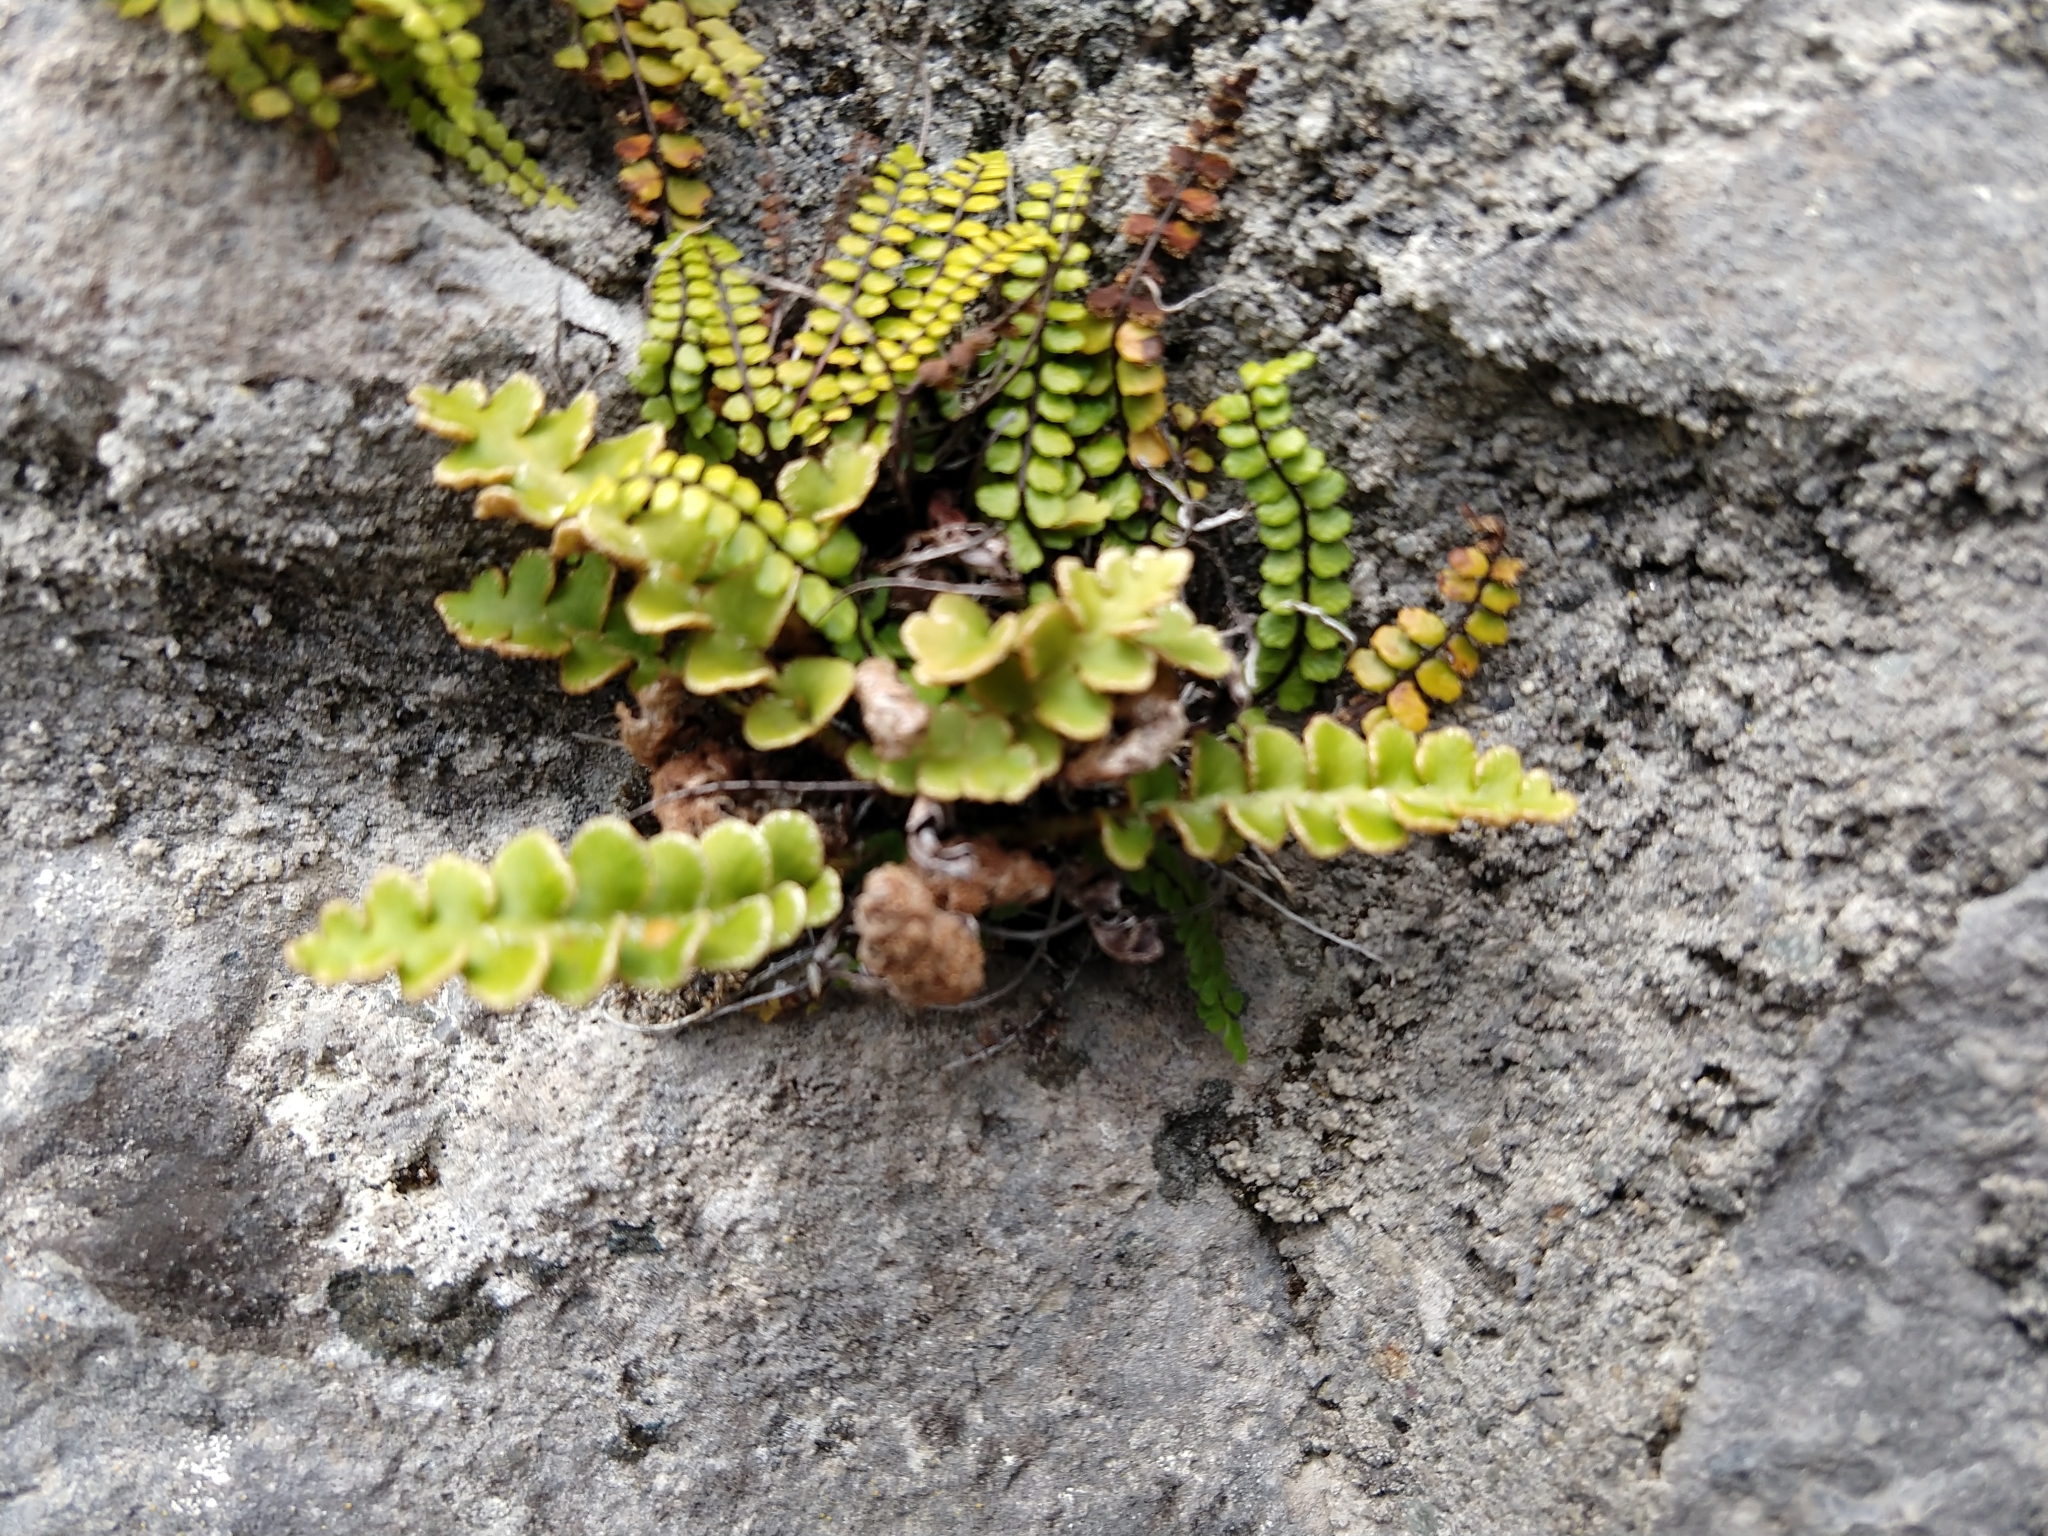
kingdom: Plantae
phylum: Tracheophyta
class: Polypodiopsida
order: Polypodiales
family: Aspleniaceae
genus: Asplenium
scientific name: Asplenium ceterach
